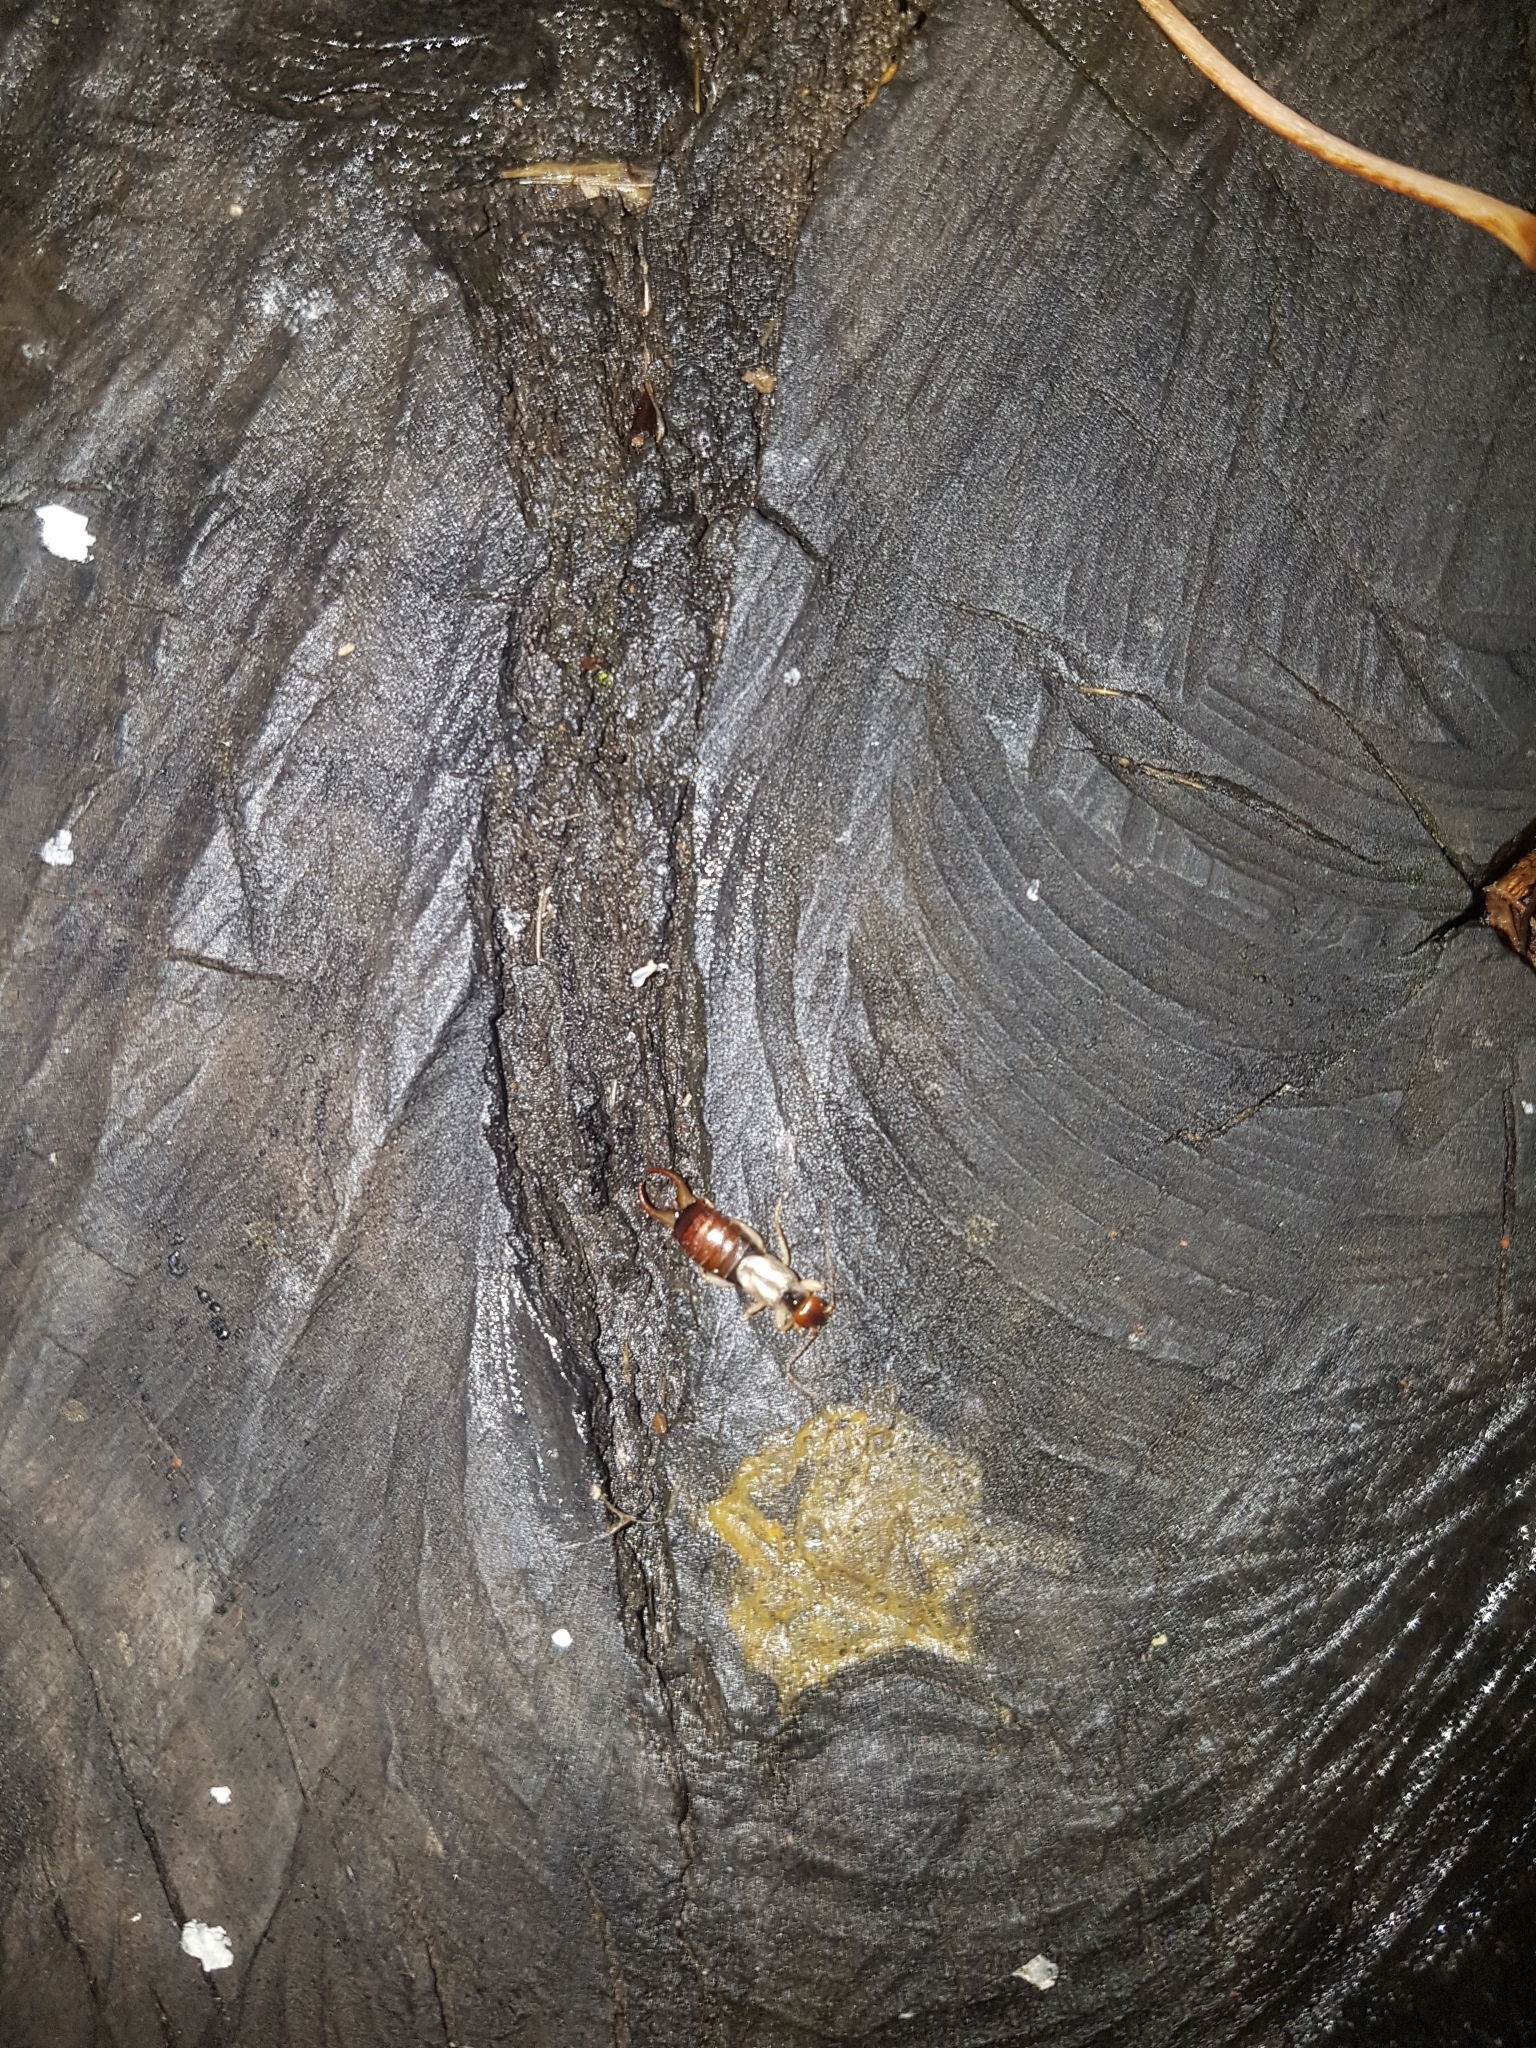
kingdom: Animalia
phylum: Arthropoda
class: Insecta
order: Dermaptera
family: Forficulidae
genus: Forficula
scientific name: Forficula
